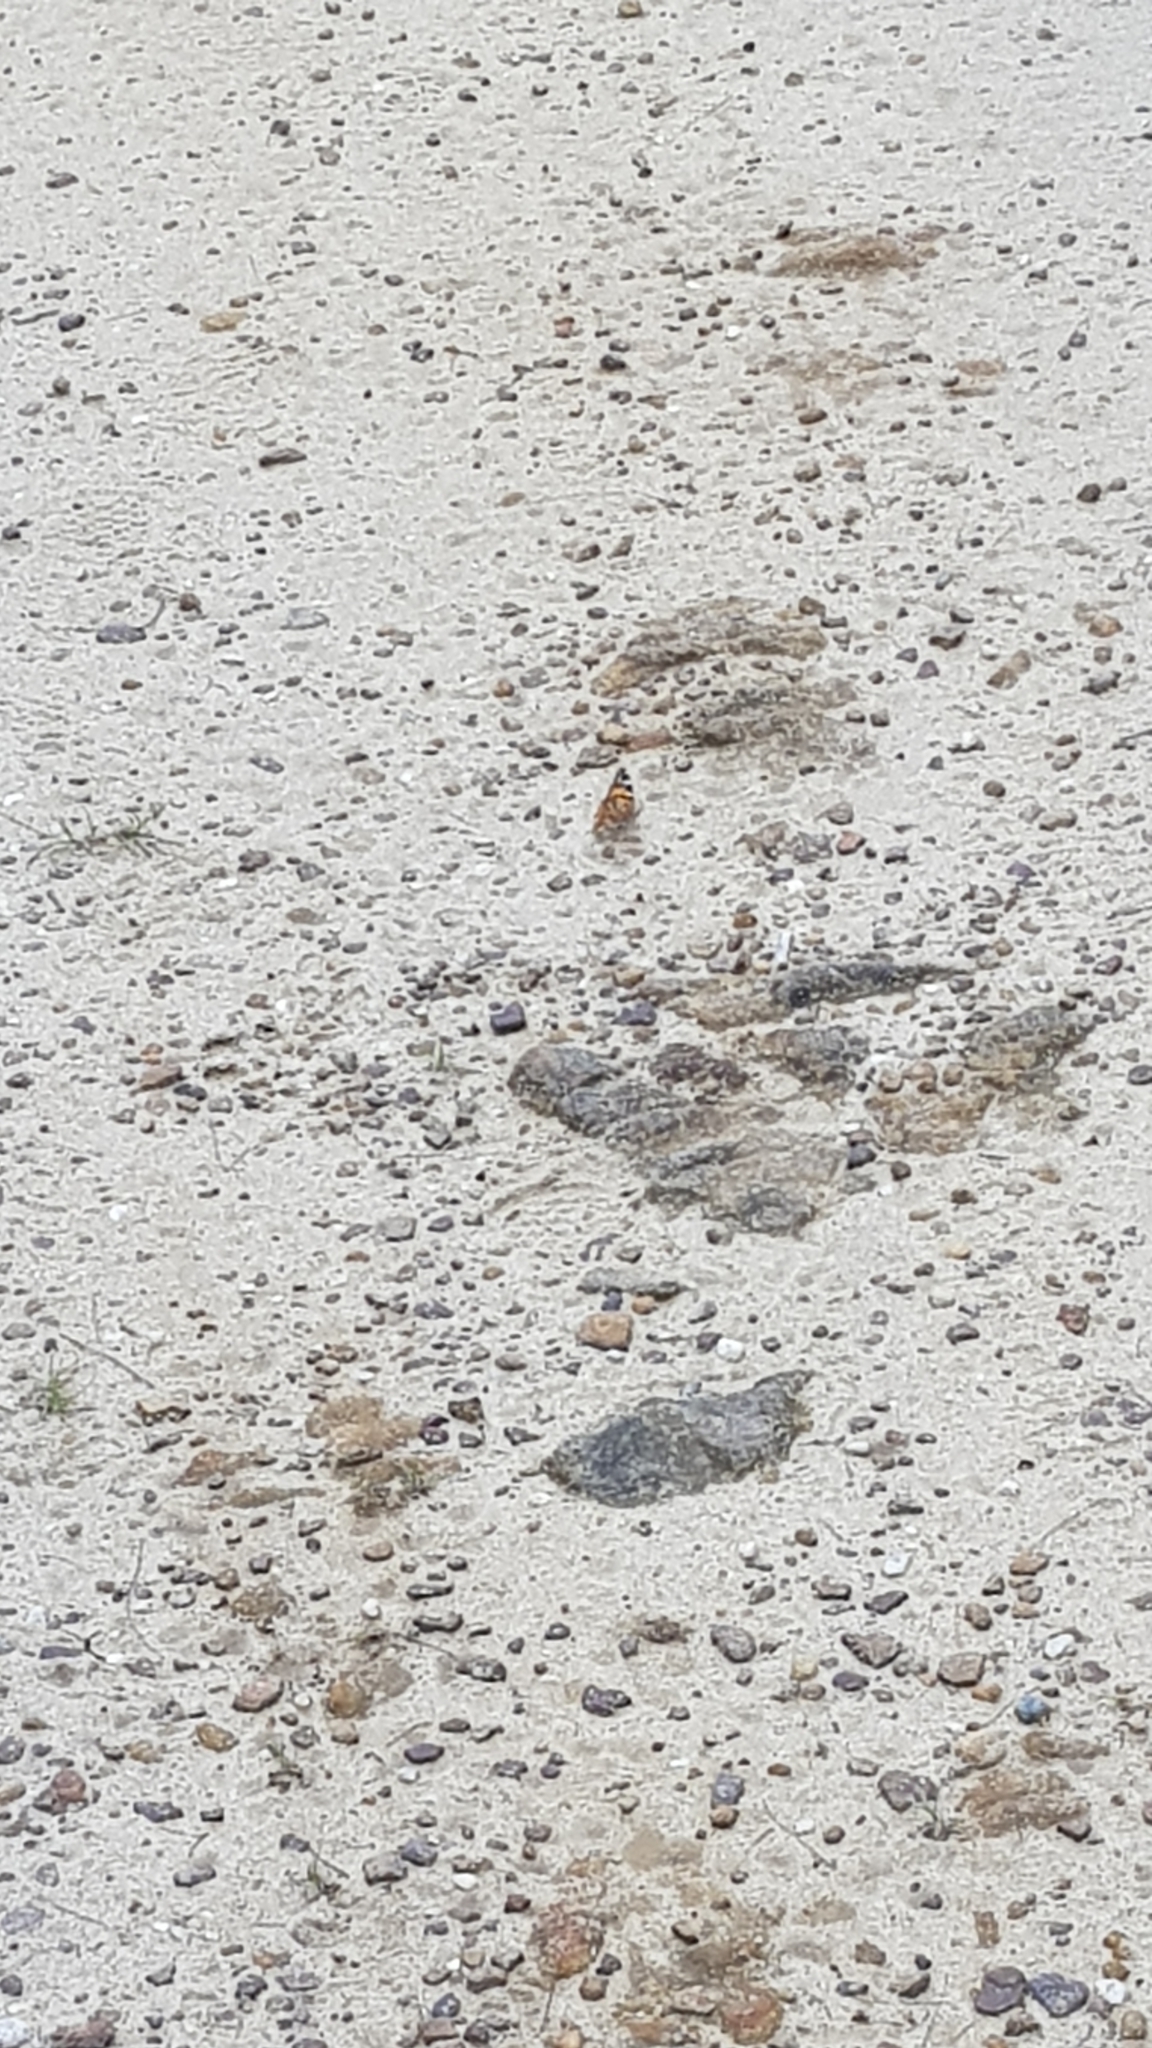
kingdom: Animalia
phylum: Arthropoda
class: Insecta
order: Lepidoptera
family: Nymphalidae
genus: Vanessa
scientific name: Vanessa kershawi
